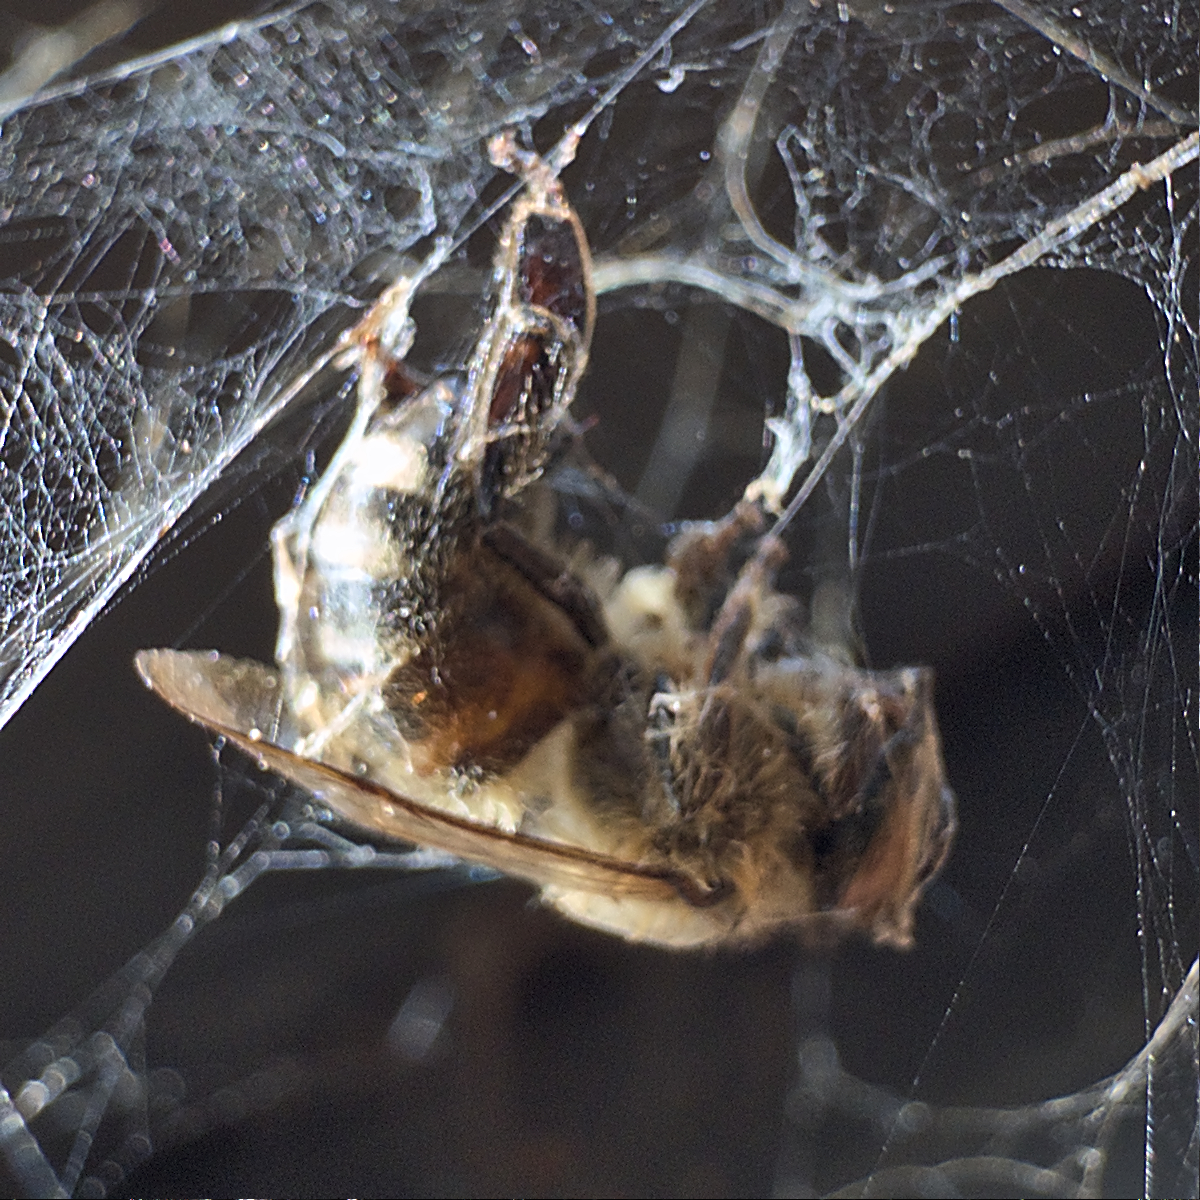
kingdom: Animalia
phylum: Arthropoda
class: Insecta
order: Hymenoptera
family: Apidae
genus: Apis
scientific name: Apis mellifera
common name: Honey bee
